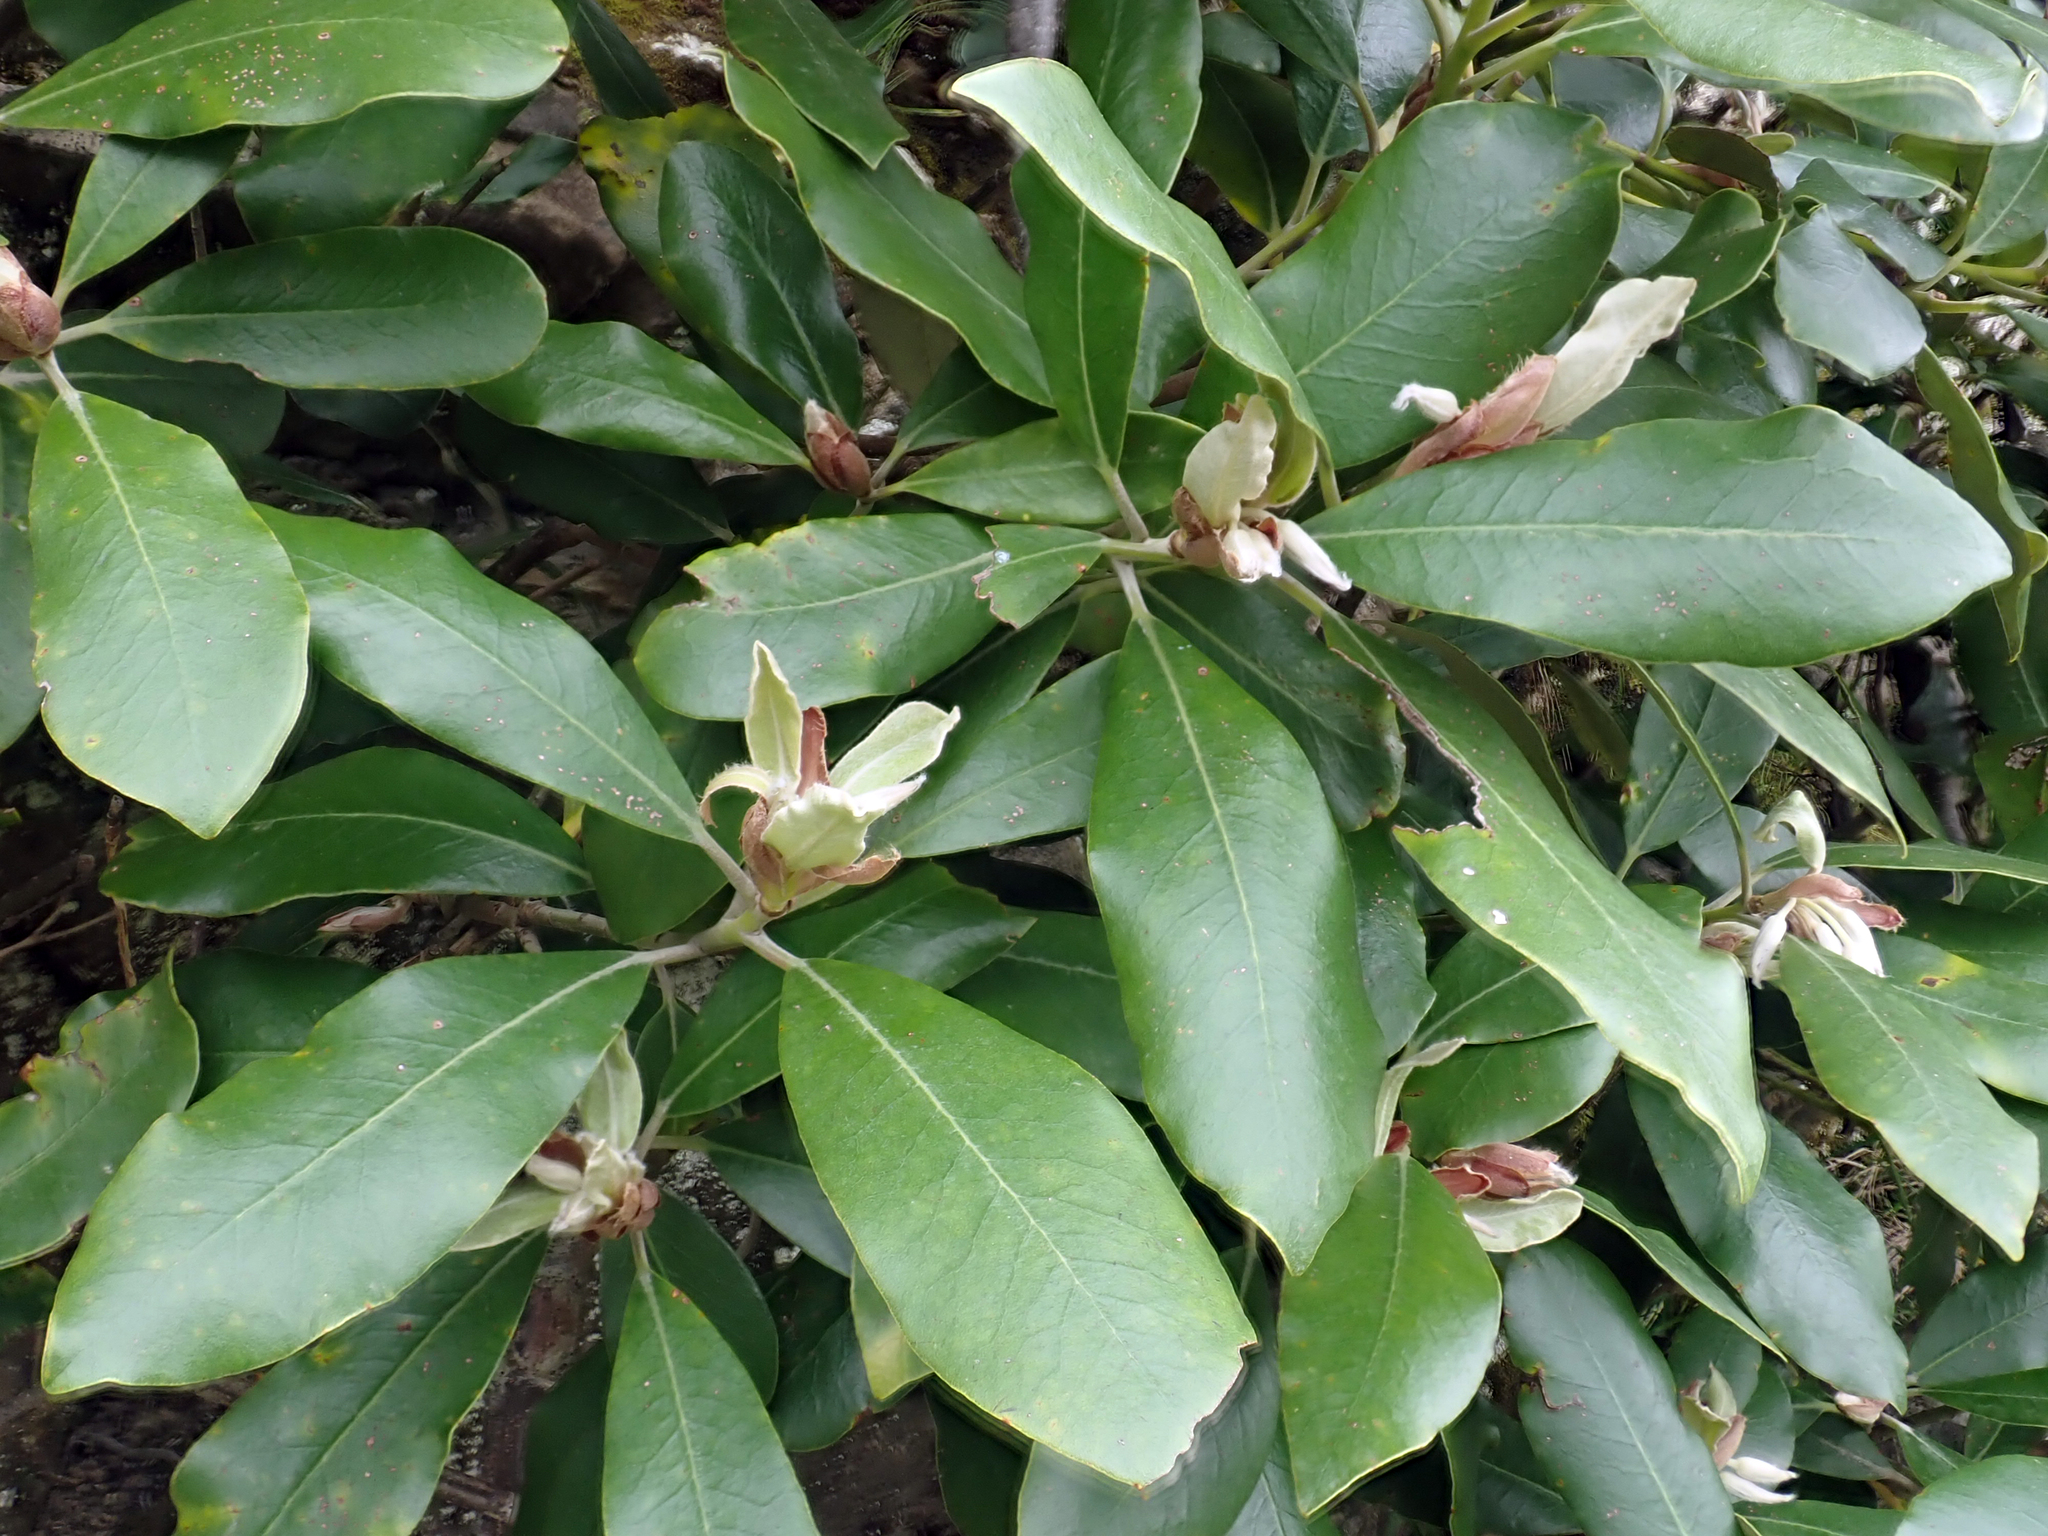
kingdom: Plantae
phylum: Tracheophyta
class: Magnoliopsida
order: Apiales
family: Pittosporaceae
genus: Pittosporum
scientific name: Pittosporum ralphii
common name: Ralph's desertwillow
